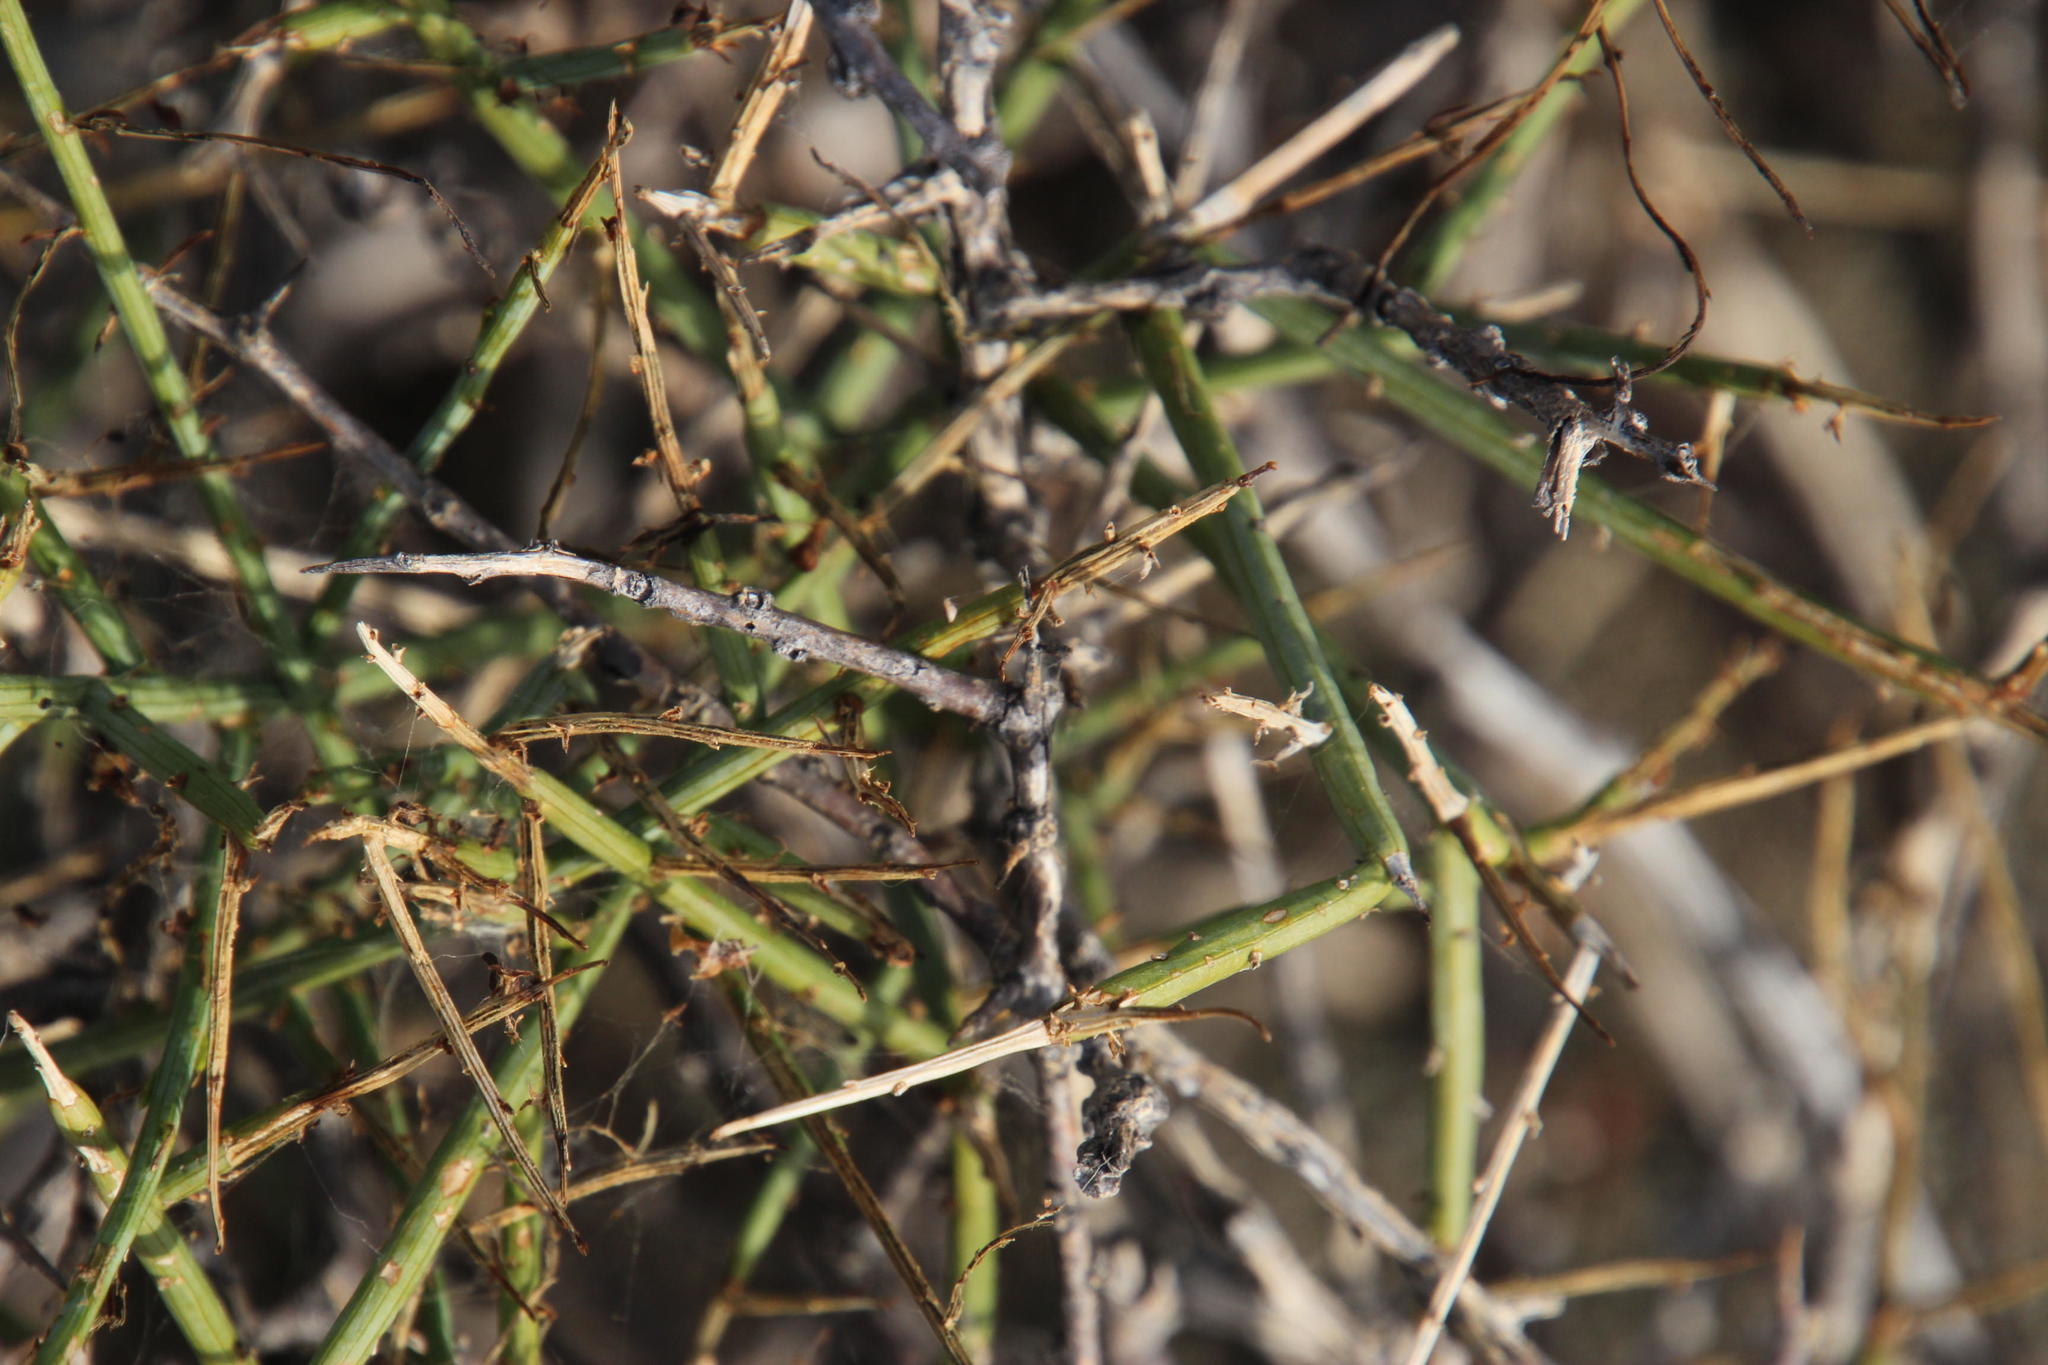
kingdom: Plantae
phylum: Tracheophyta
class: Magnoliopsida
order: Santalales
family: Thesiaceae
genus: Lacomucinaea
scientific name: Lacomucinaea lineata
